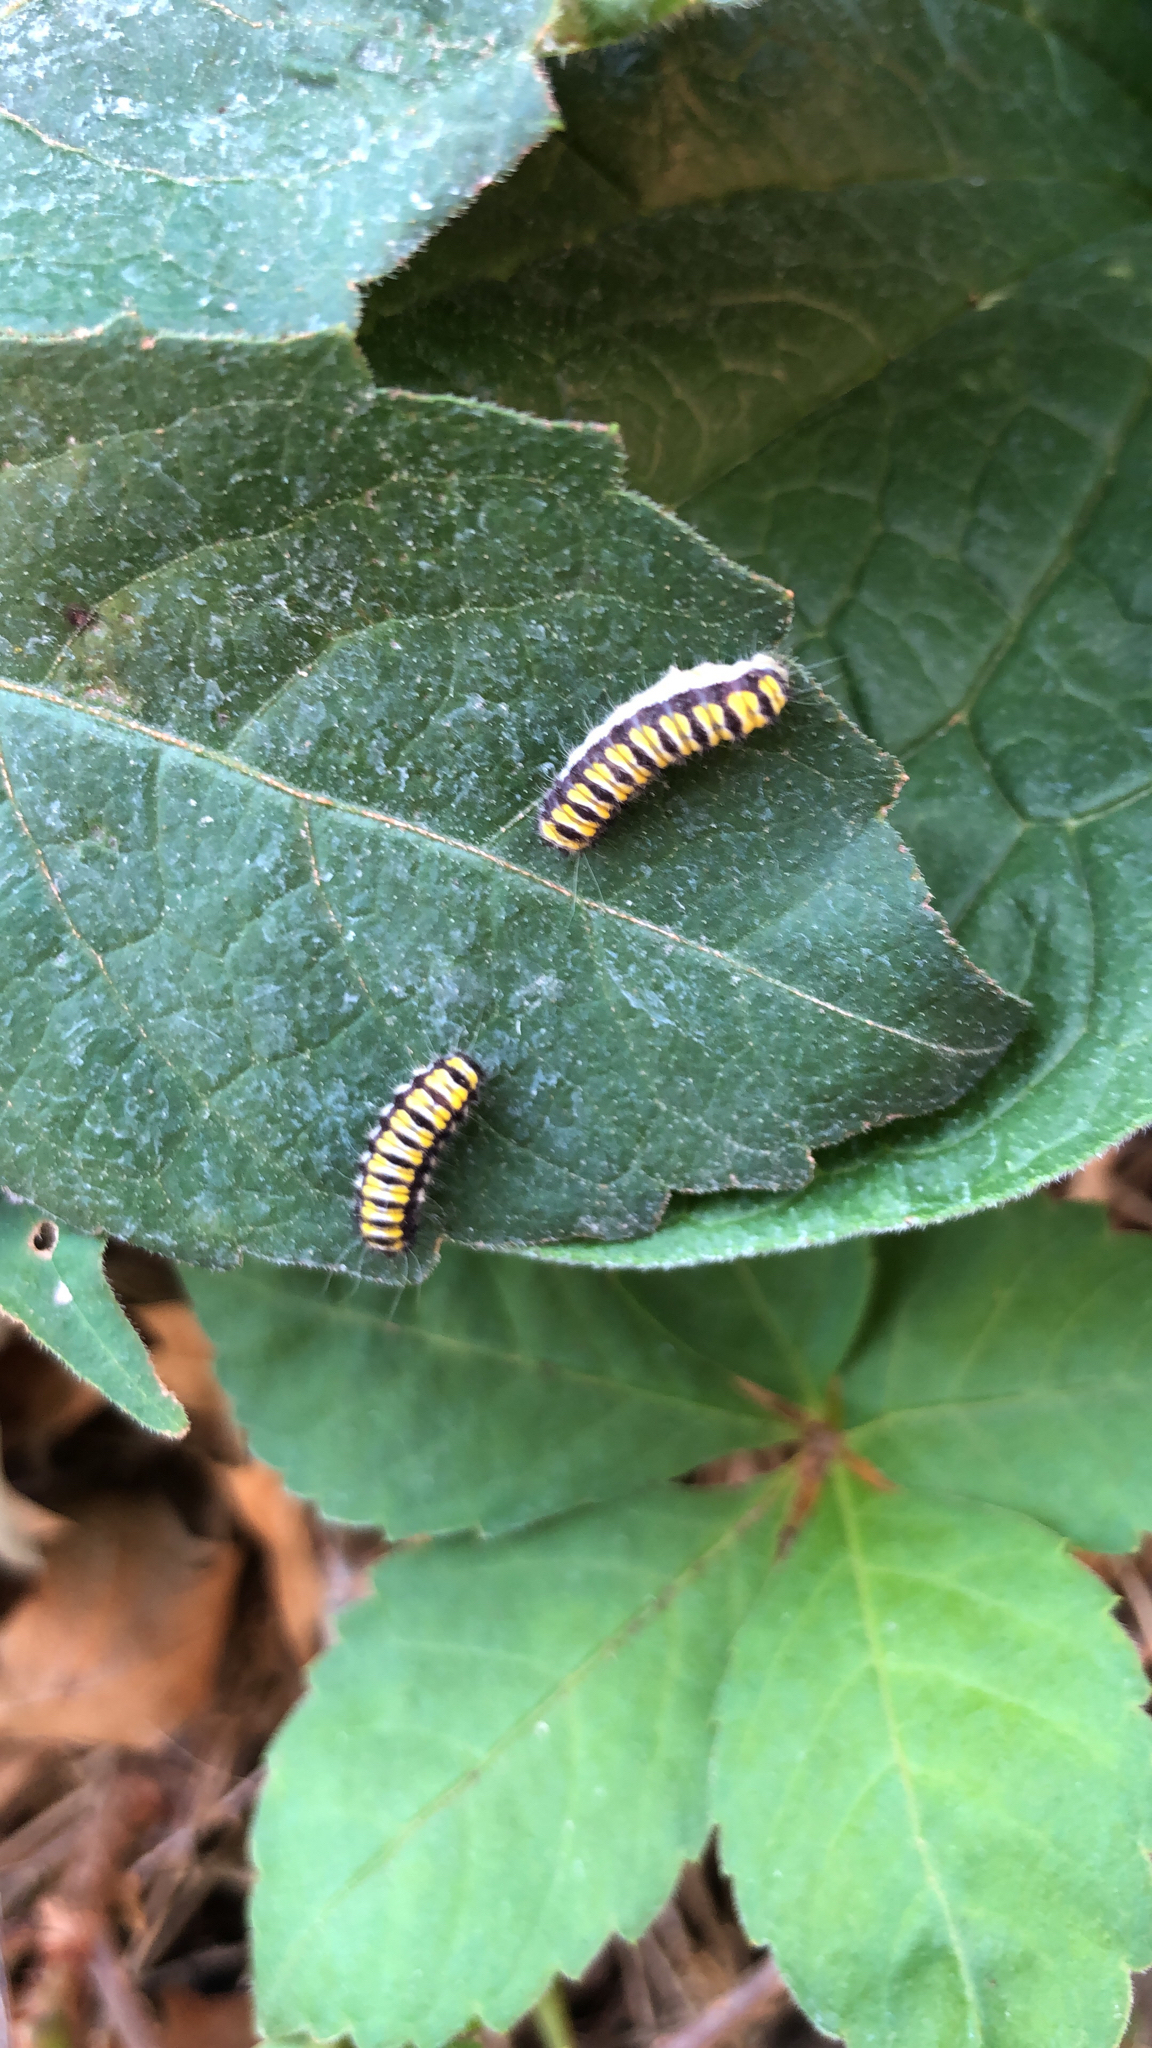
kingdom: Animalia
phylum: Arthropoda
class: Insecta
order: Lepidoptera
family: Zygaenidae
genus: Harrisina
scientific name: Harrisina americana
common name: Grapeleaf skeletonizer moth
